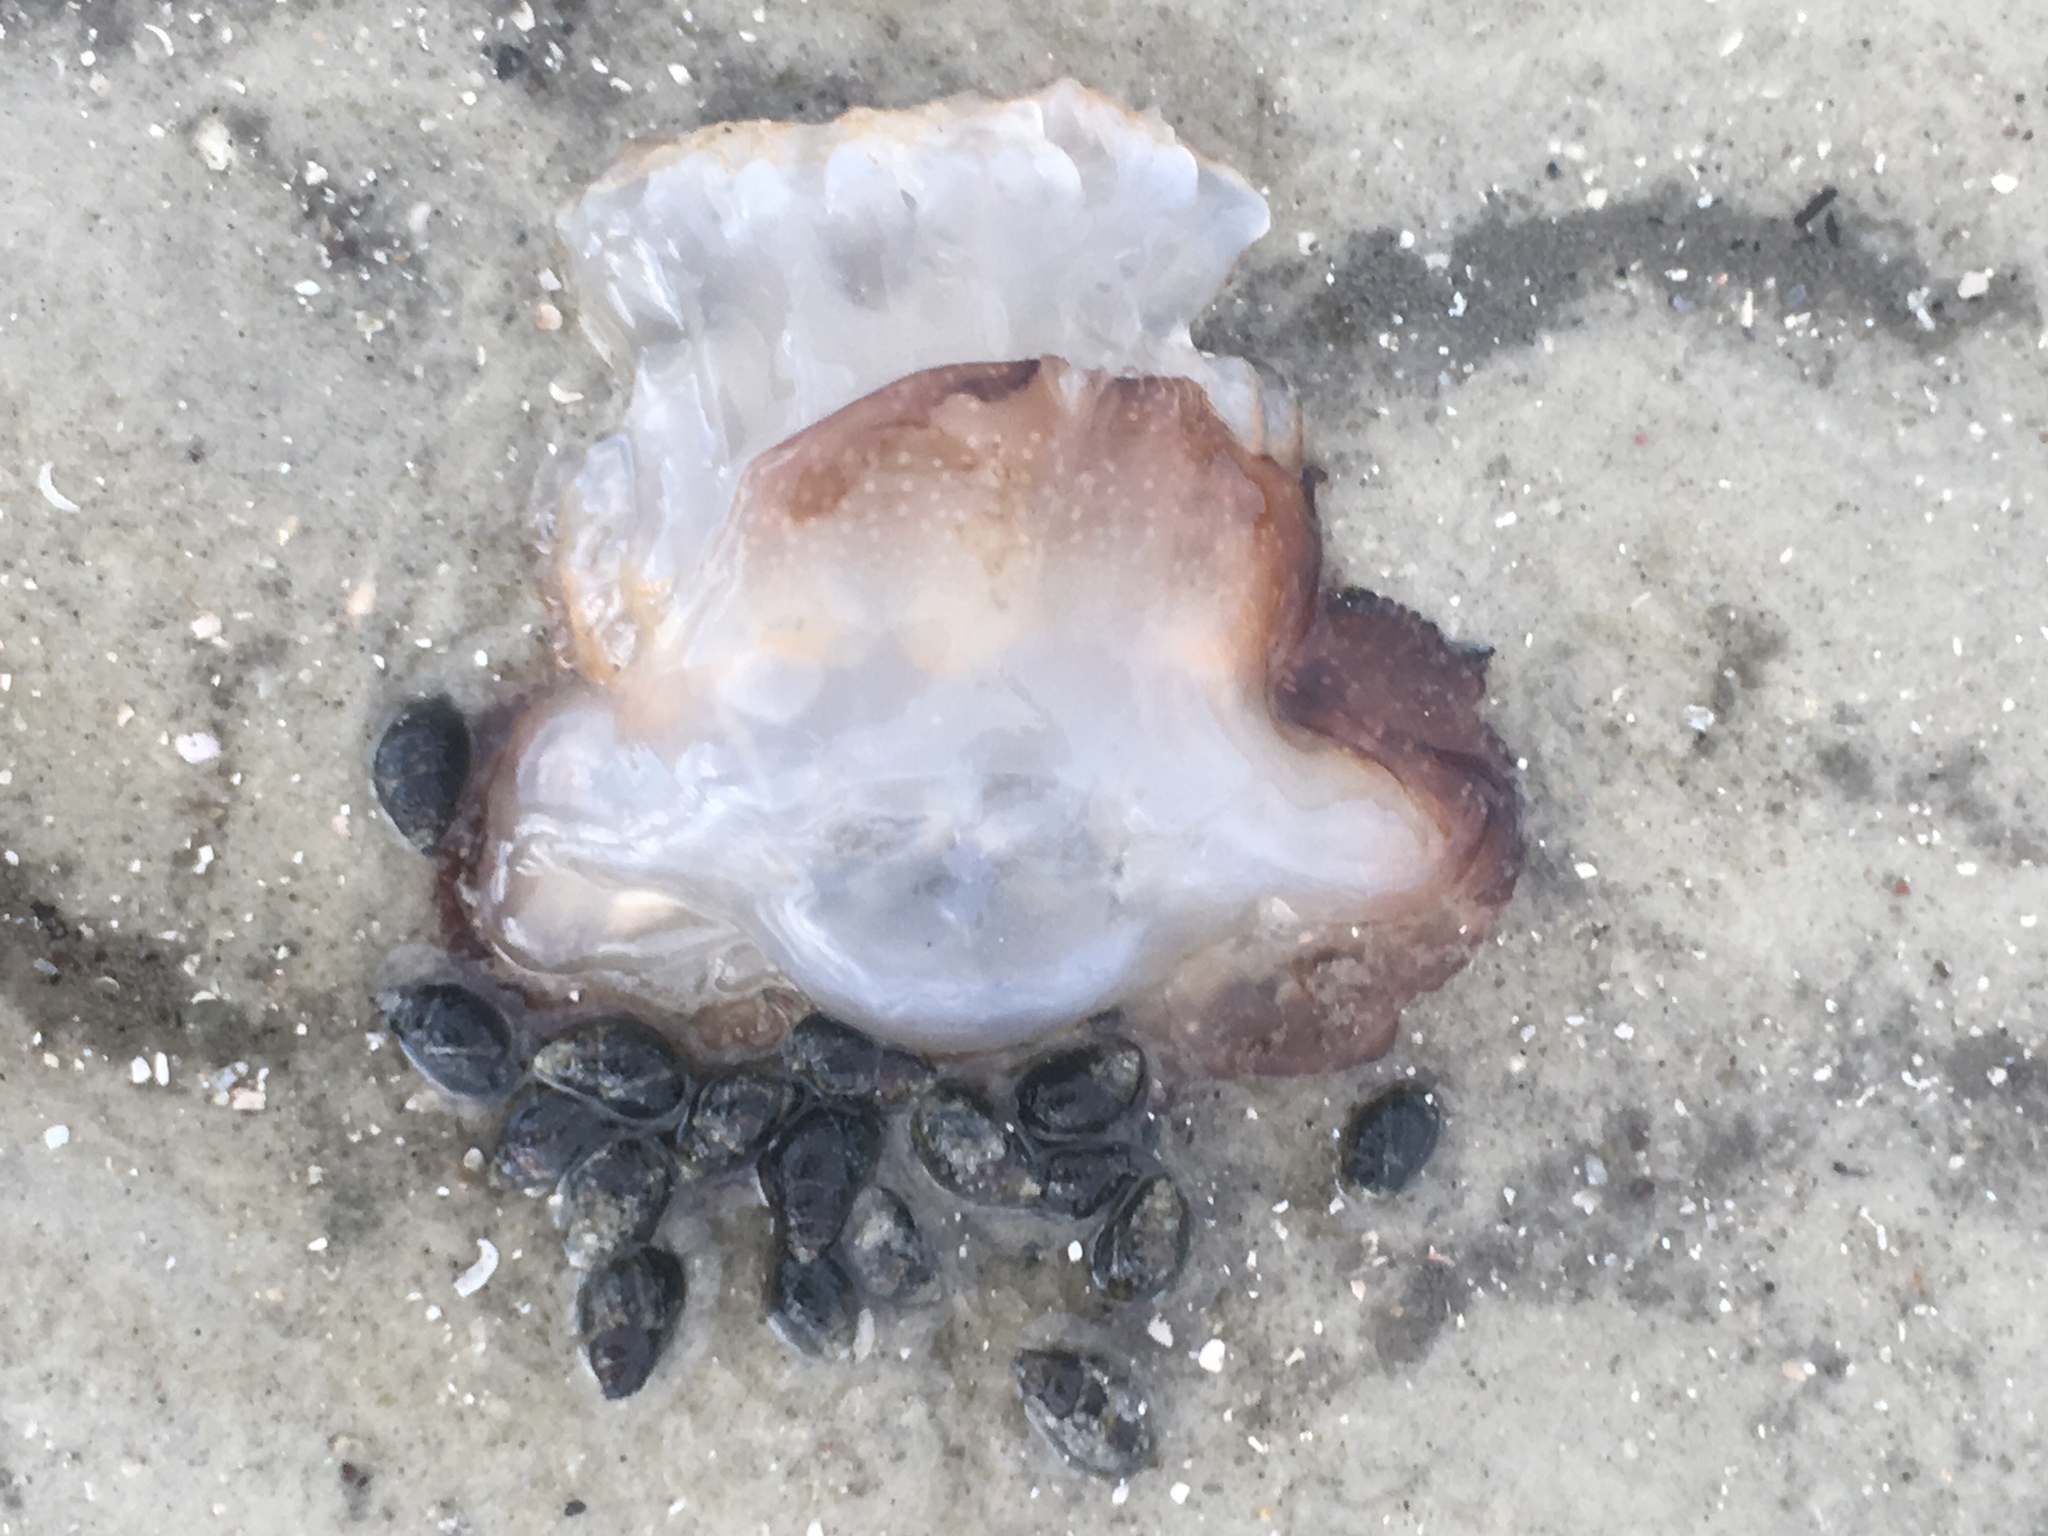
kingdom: Animalia
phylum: Cnidaria
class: Scyphozoa
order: Rhizostomeae
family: Stomolophidae
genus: Stomolophus
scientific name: Stomolophus meleagris
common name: Cabbagehead
